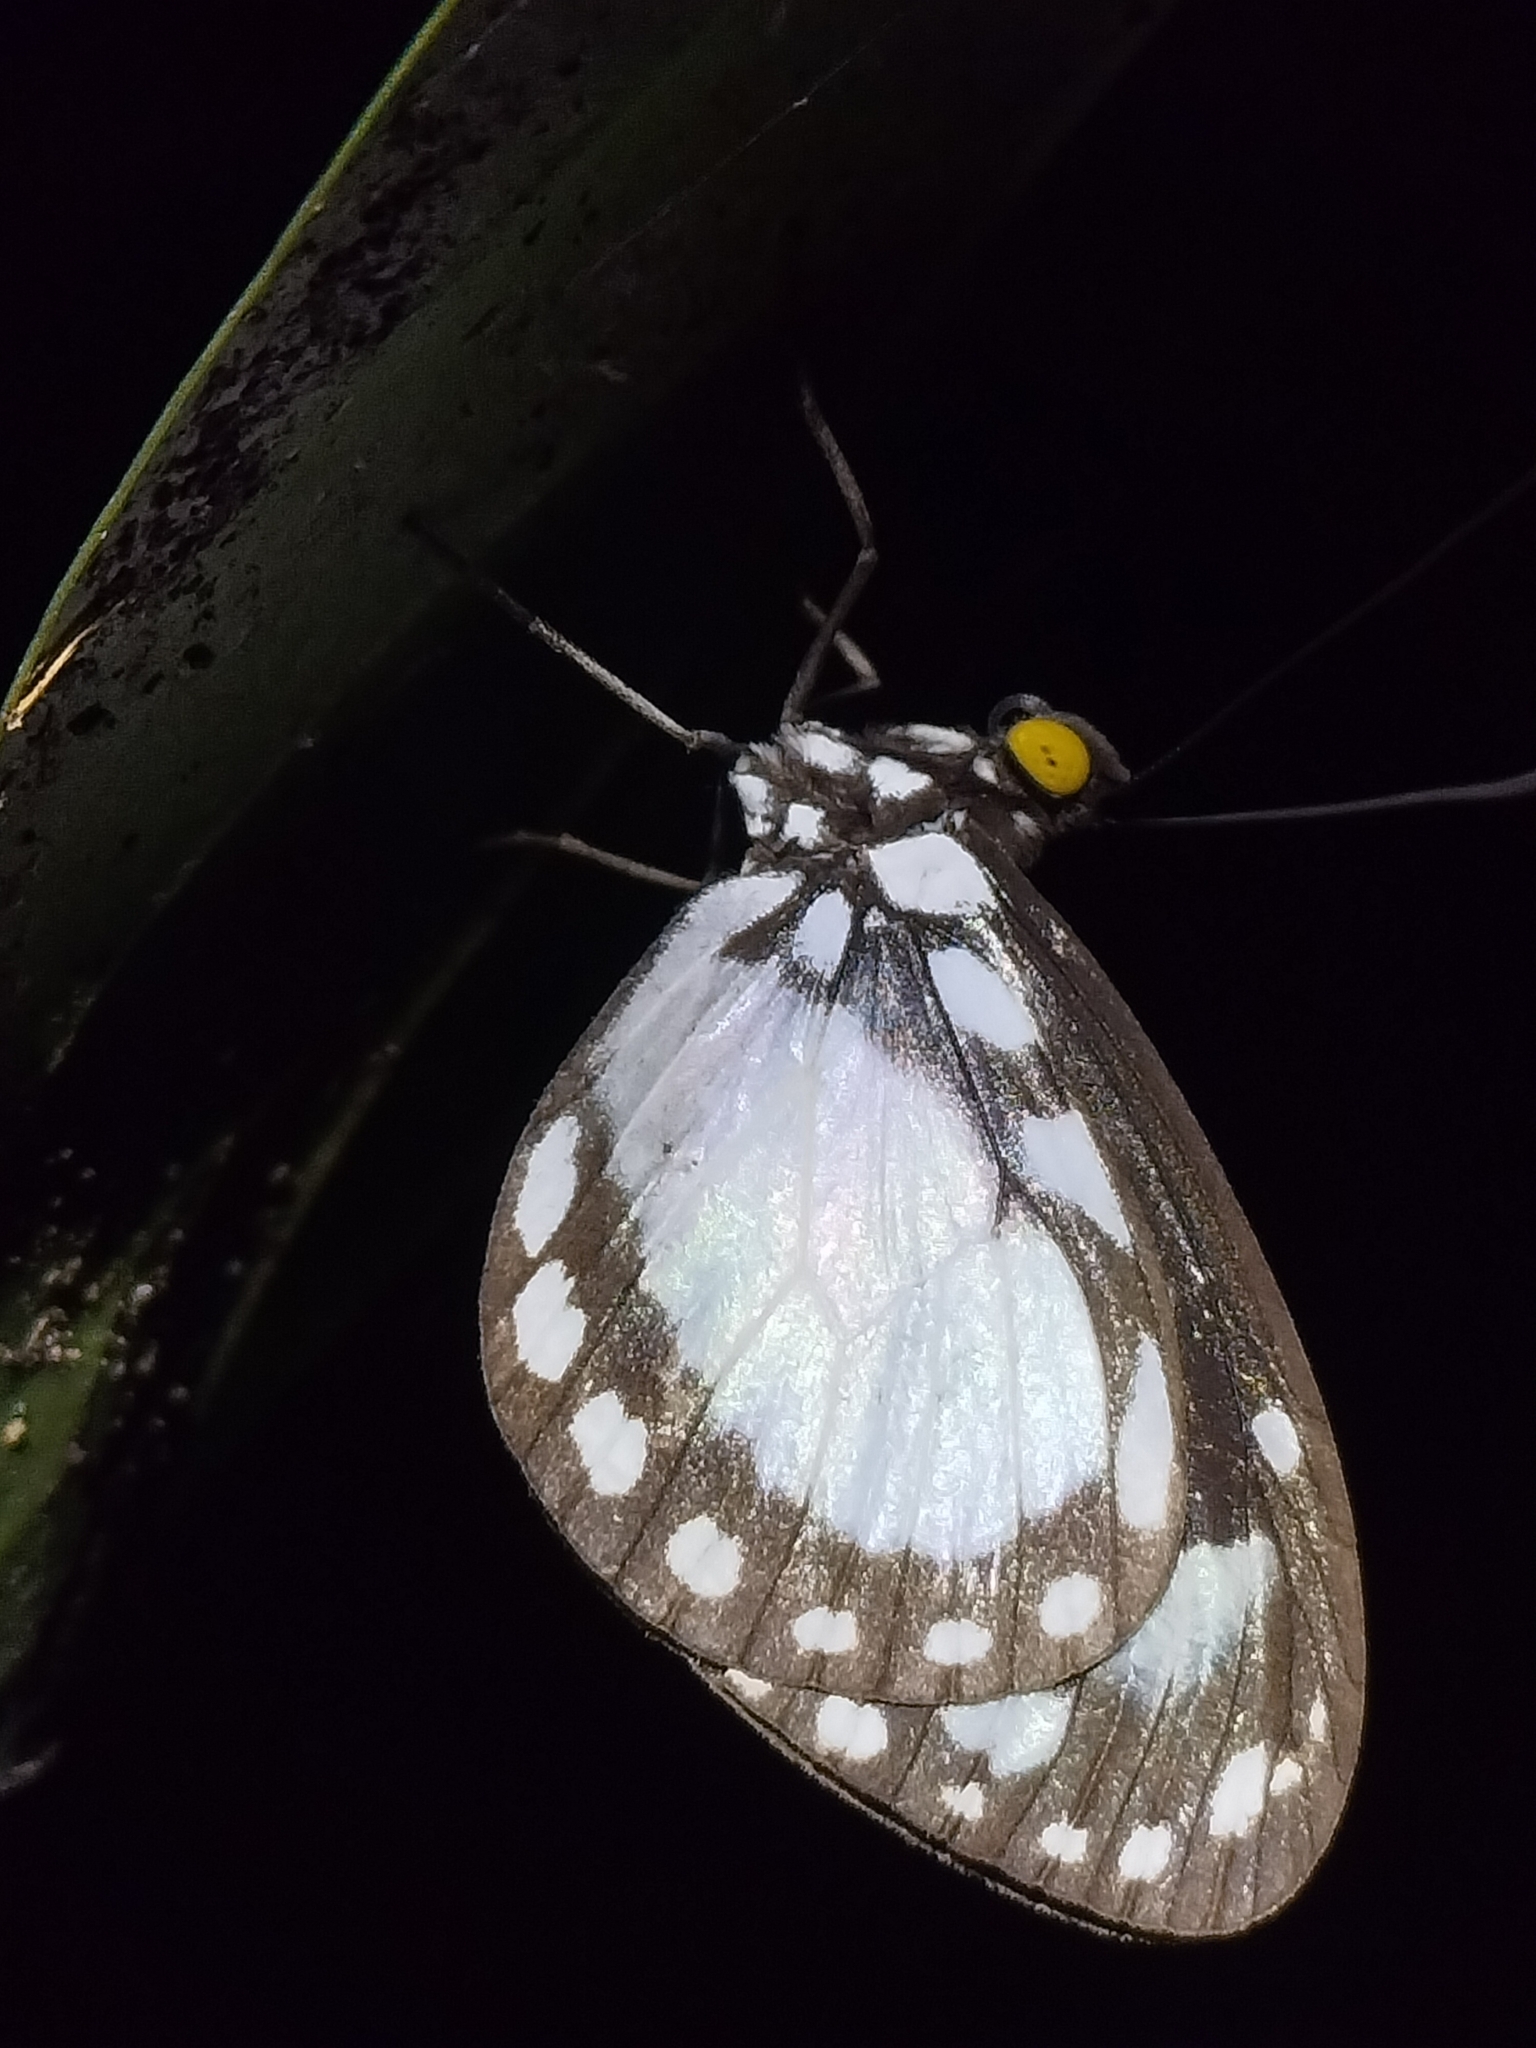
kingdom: Animalia
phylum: Arthropoda
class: Insecta
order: Lepidoptera
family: Nymphalidae
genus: Neptis
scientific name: Neptis praslini
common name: Yellow-eyed plane
